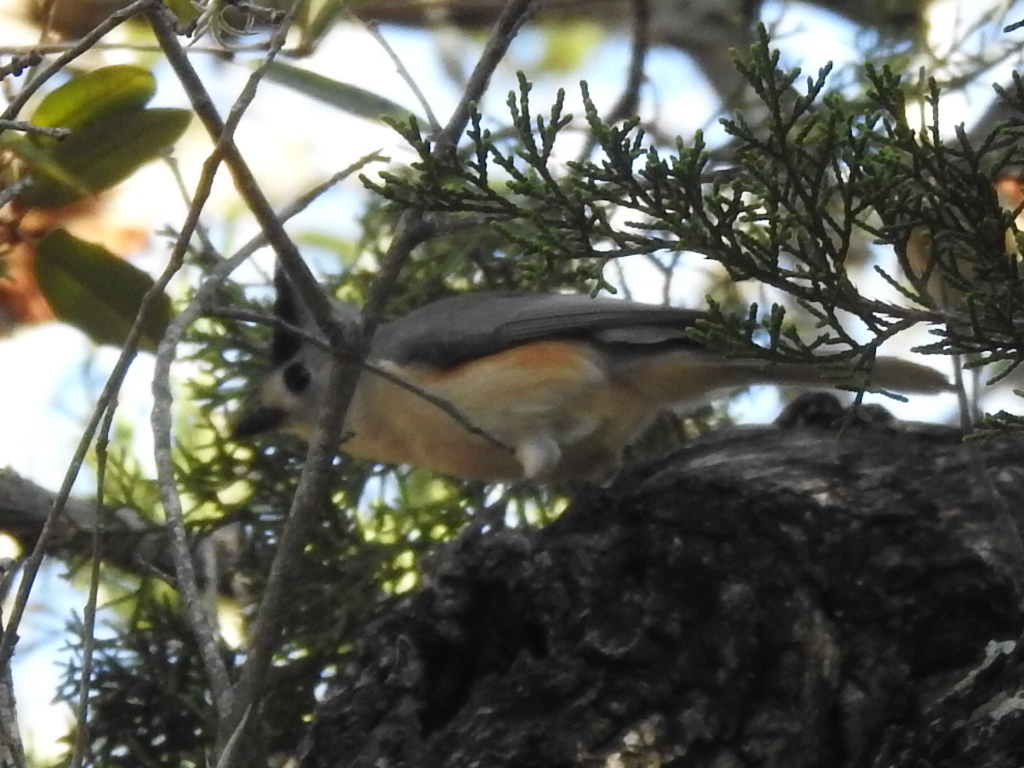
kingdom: Animalia
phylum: Chordata
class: Aves
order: Passeriformes
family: Paridae
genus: Baeolophus
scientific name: Baeolophus atricristatus
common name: Black-crested titmouse
